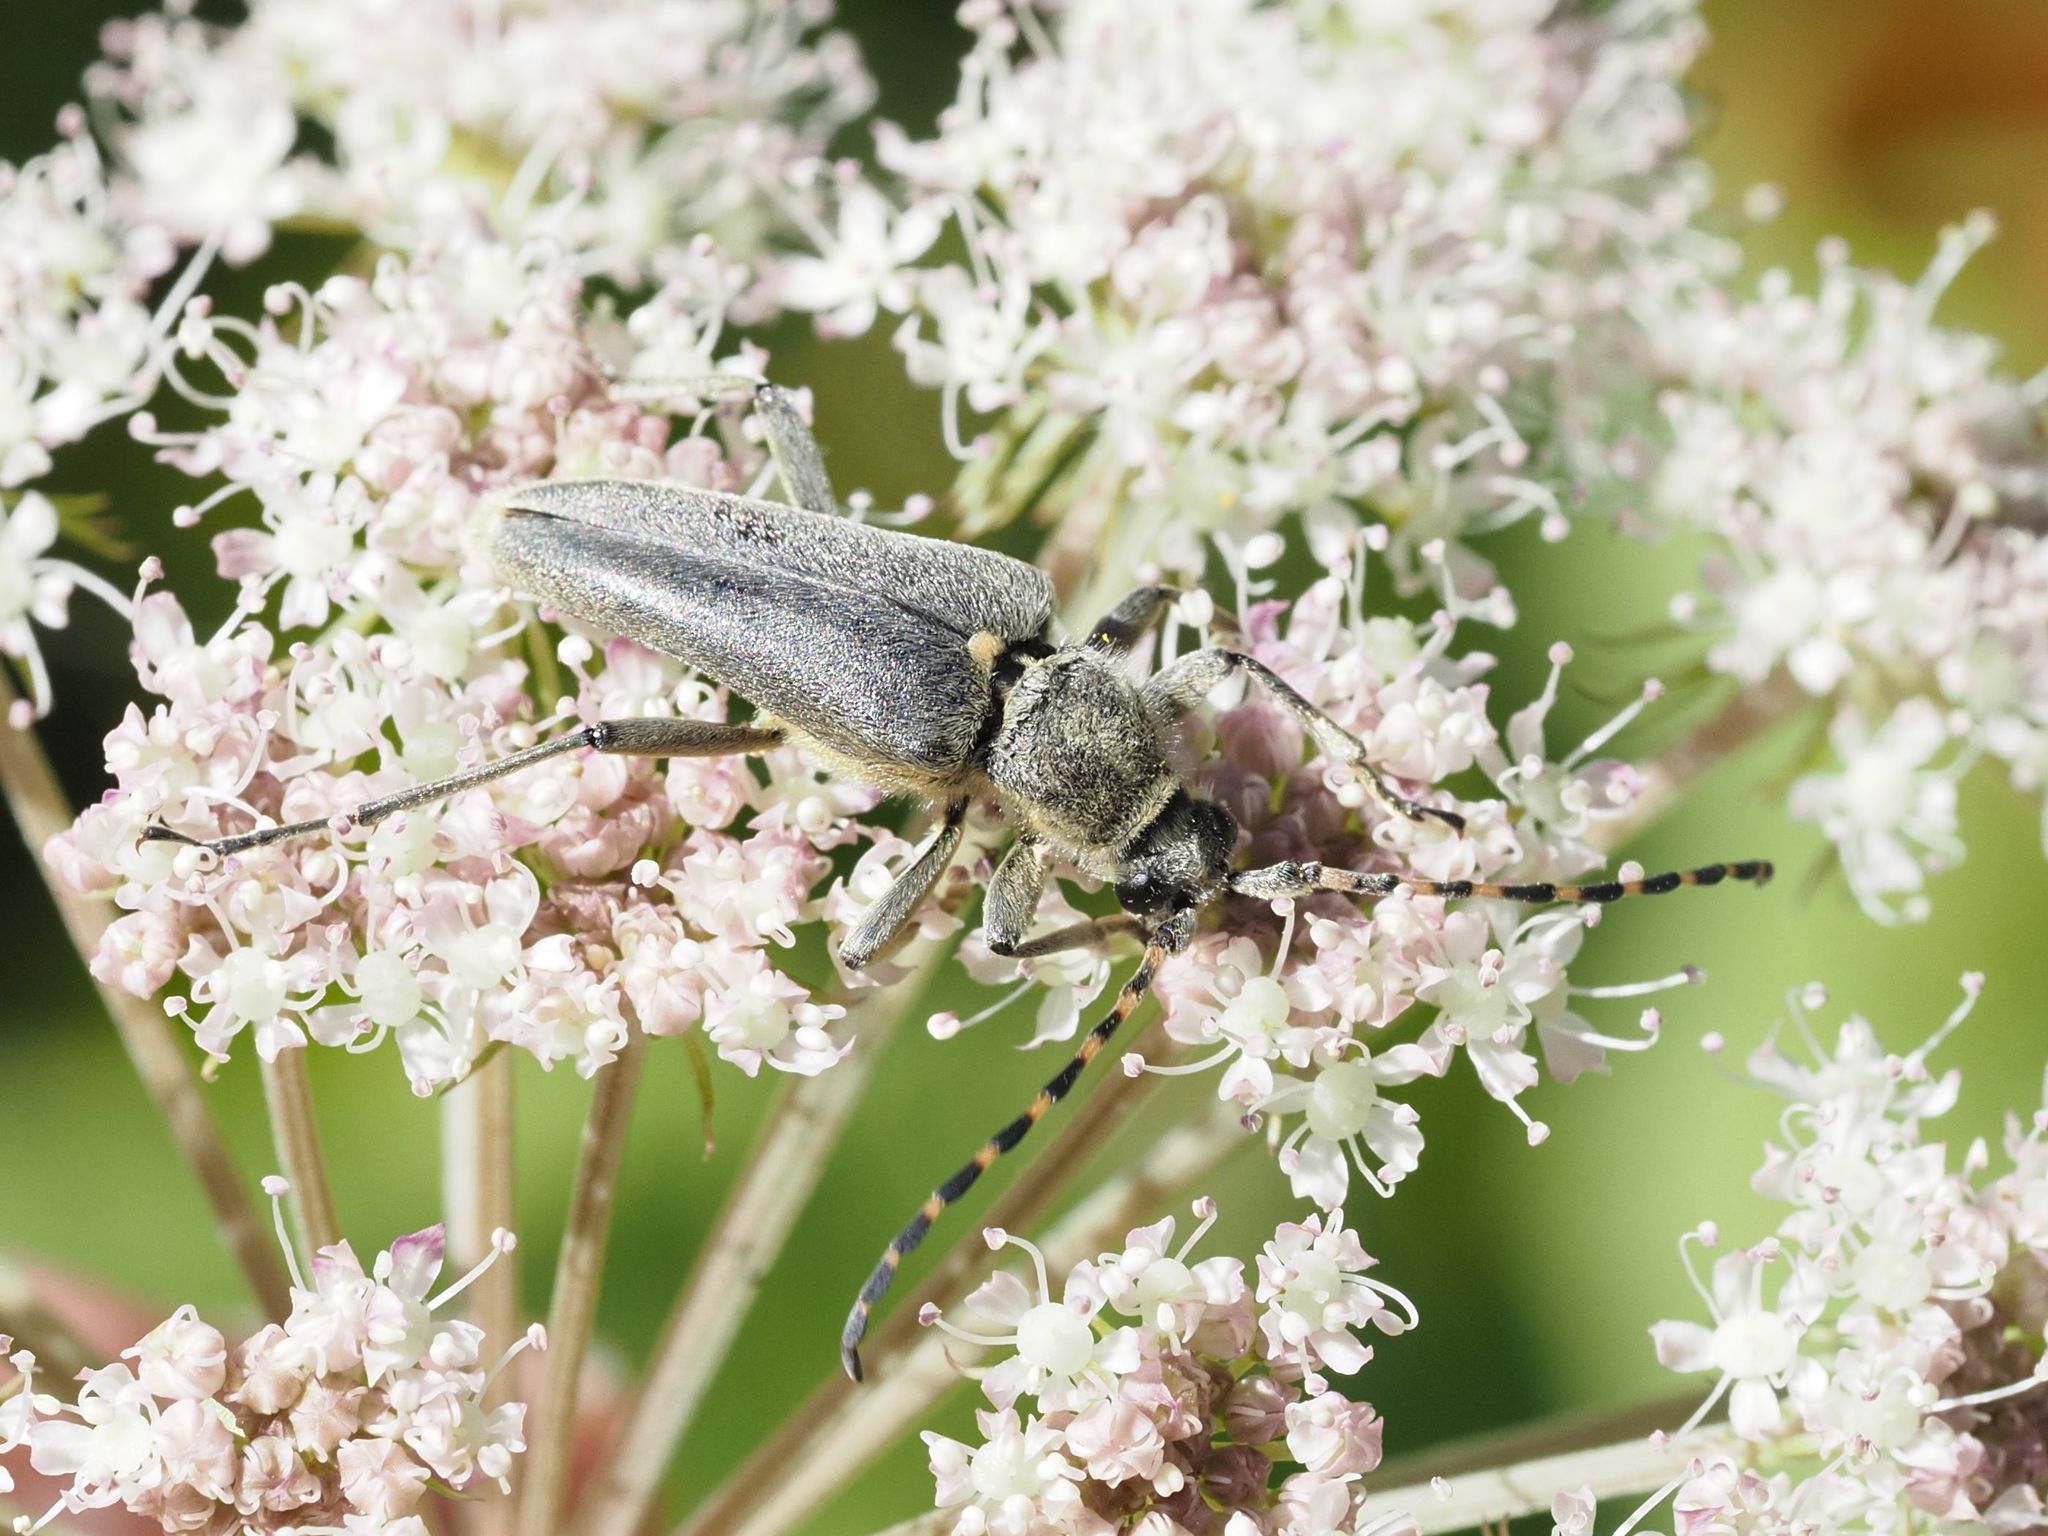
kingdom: Animalia
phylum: Arthropoda
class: Insecta
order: Coleoptera
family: Cerambycidae
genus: Lepturobosca
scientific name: Lepturobosca virens
